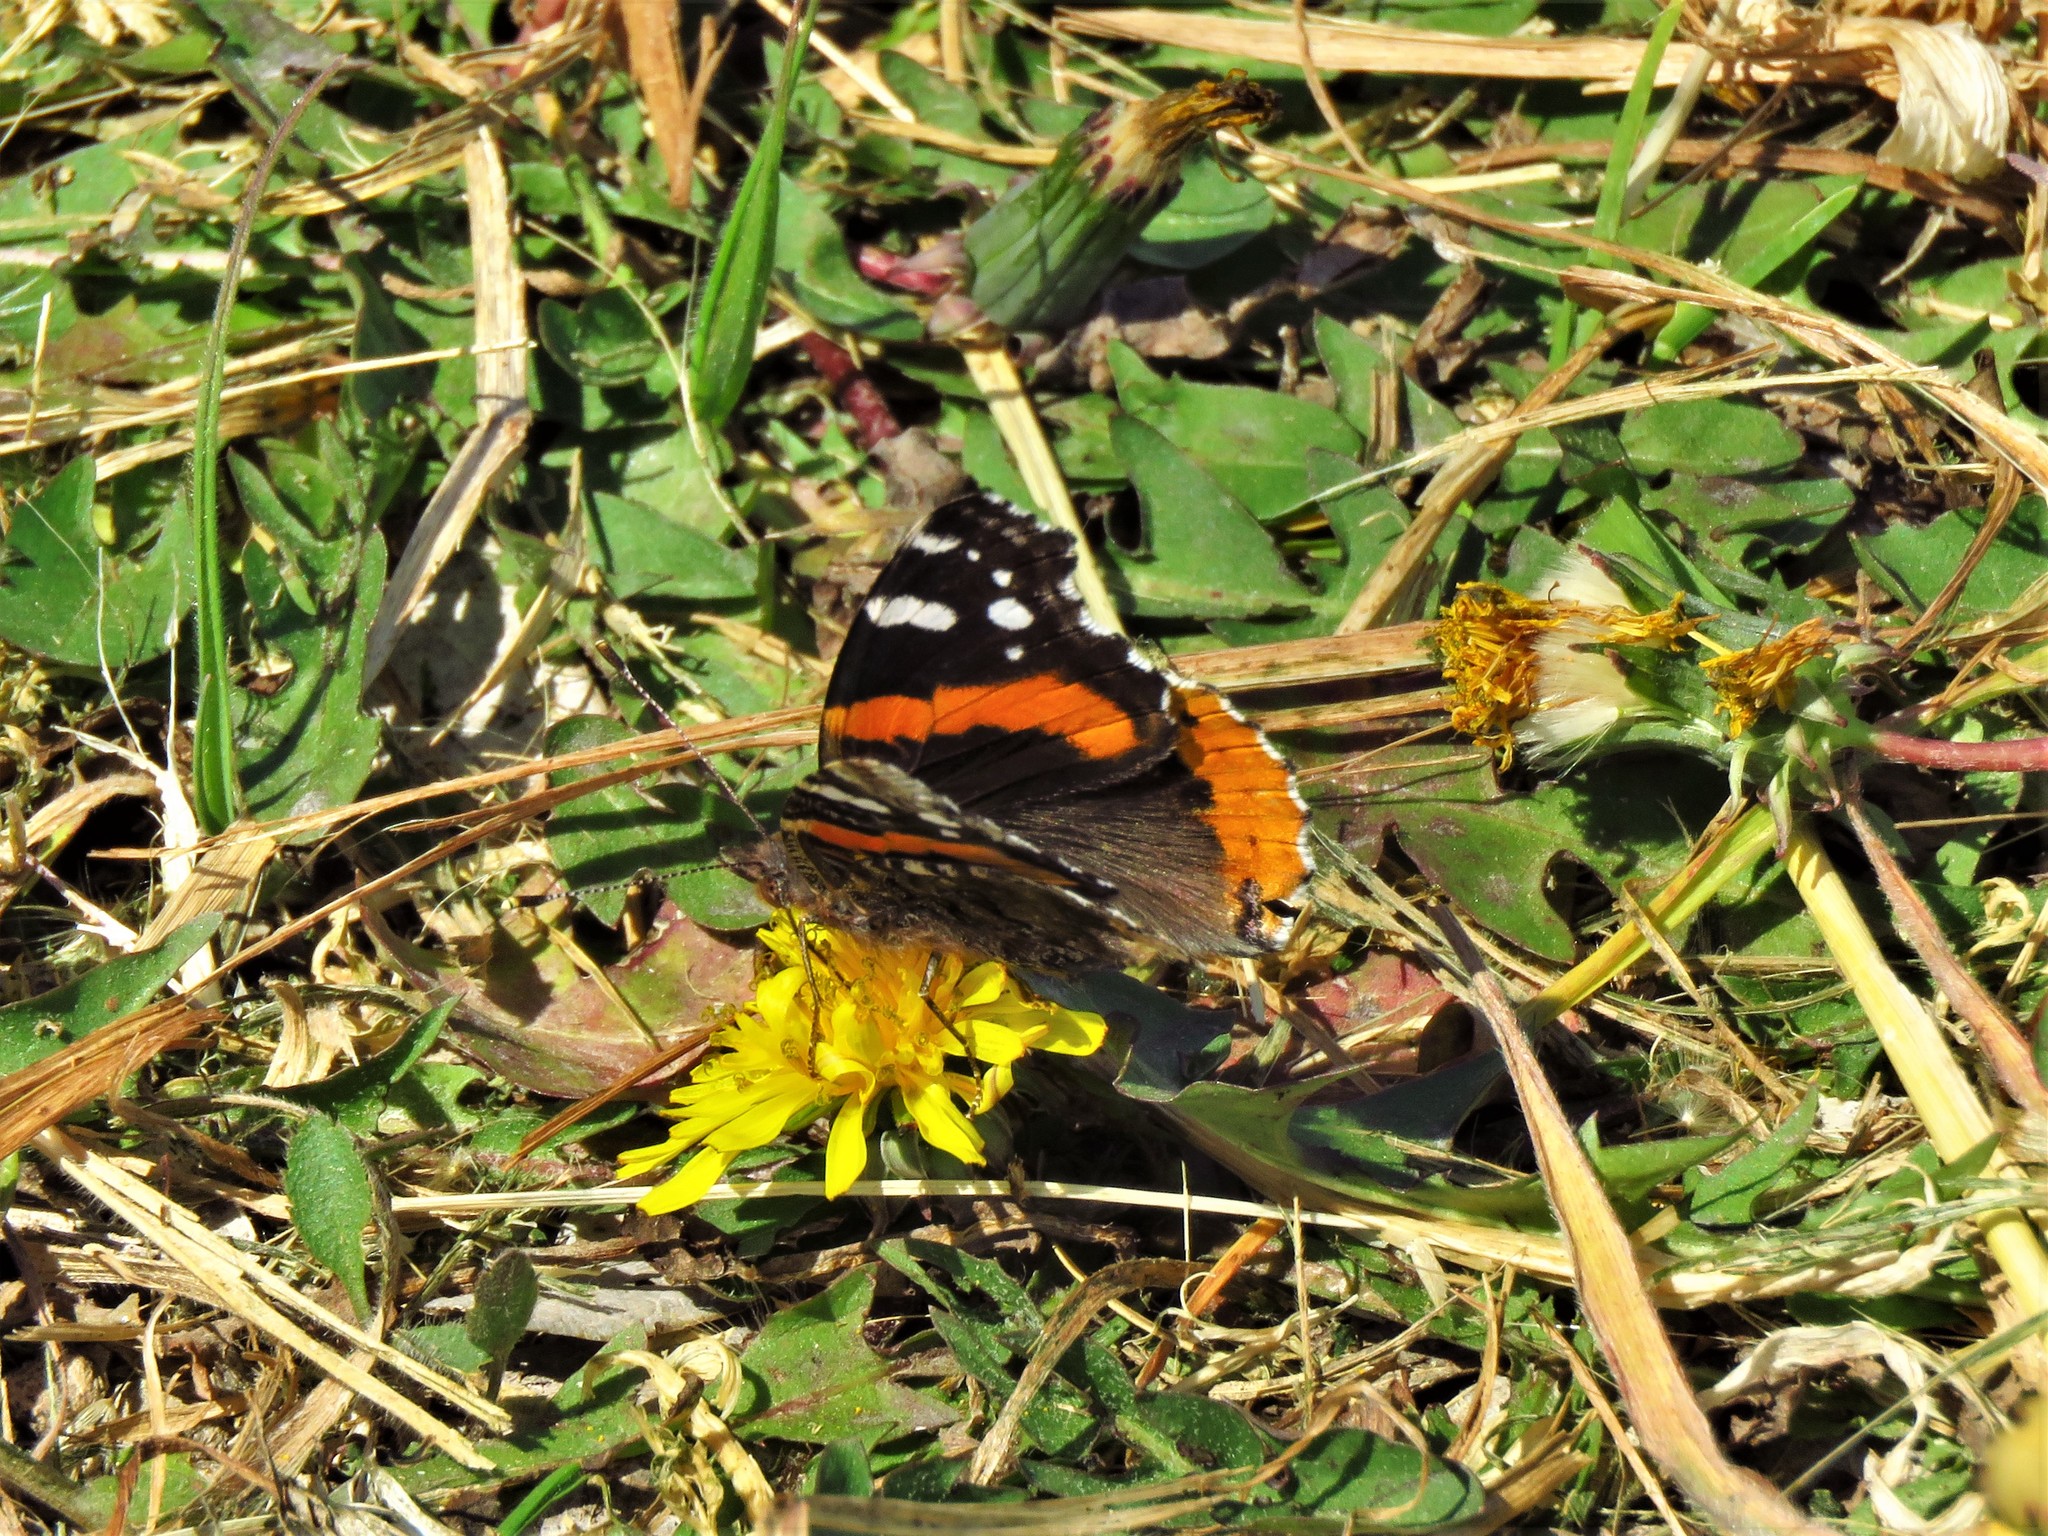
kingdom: Animalia
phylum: Arthropoda
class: Insecta
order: Lepidoptera
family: Nymphalidae
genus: Vanessa
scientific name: Vanessa atalanta
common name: Red admiral
